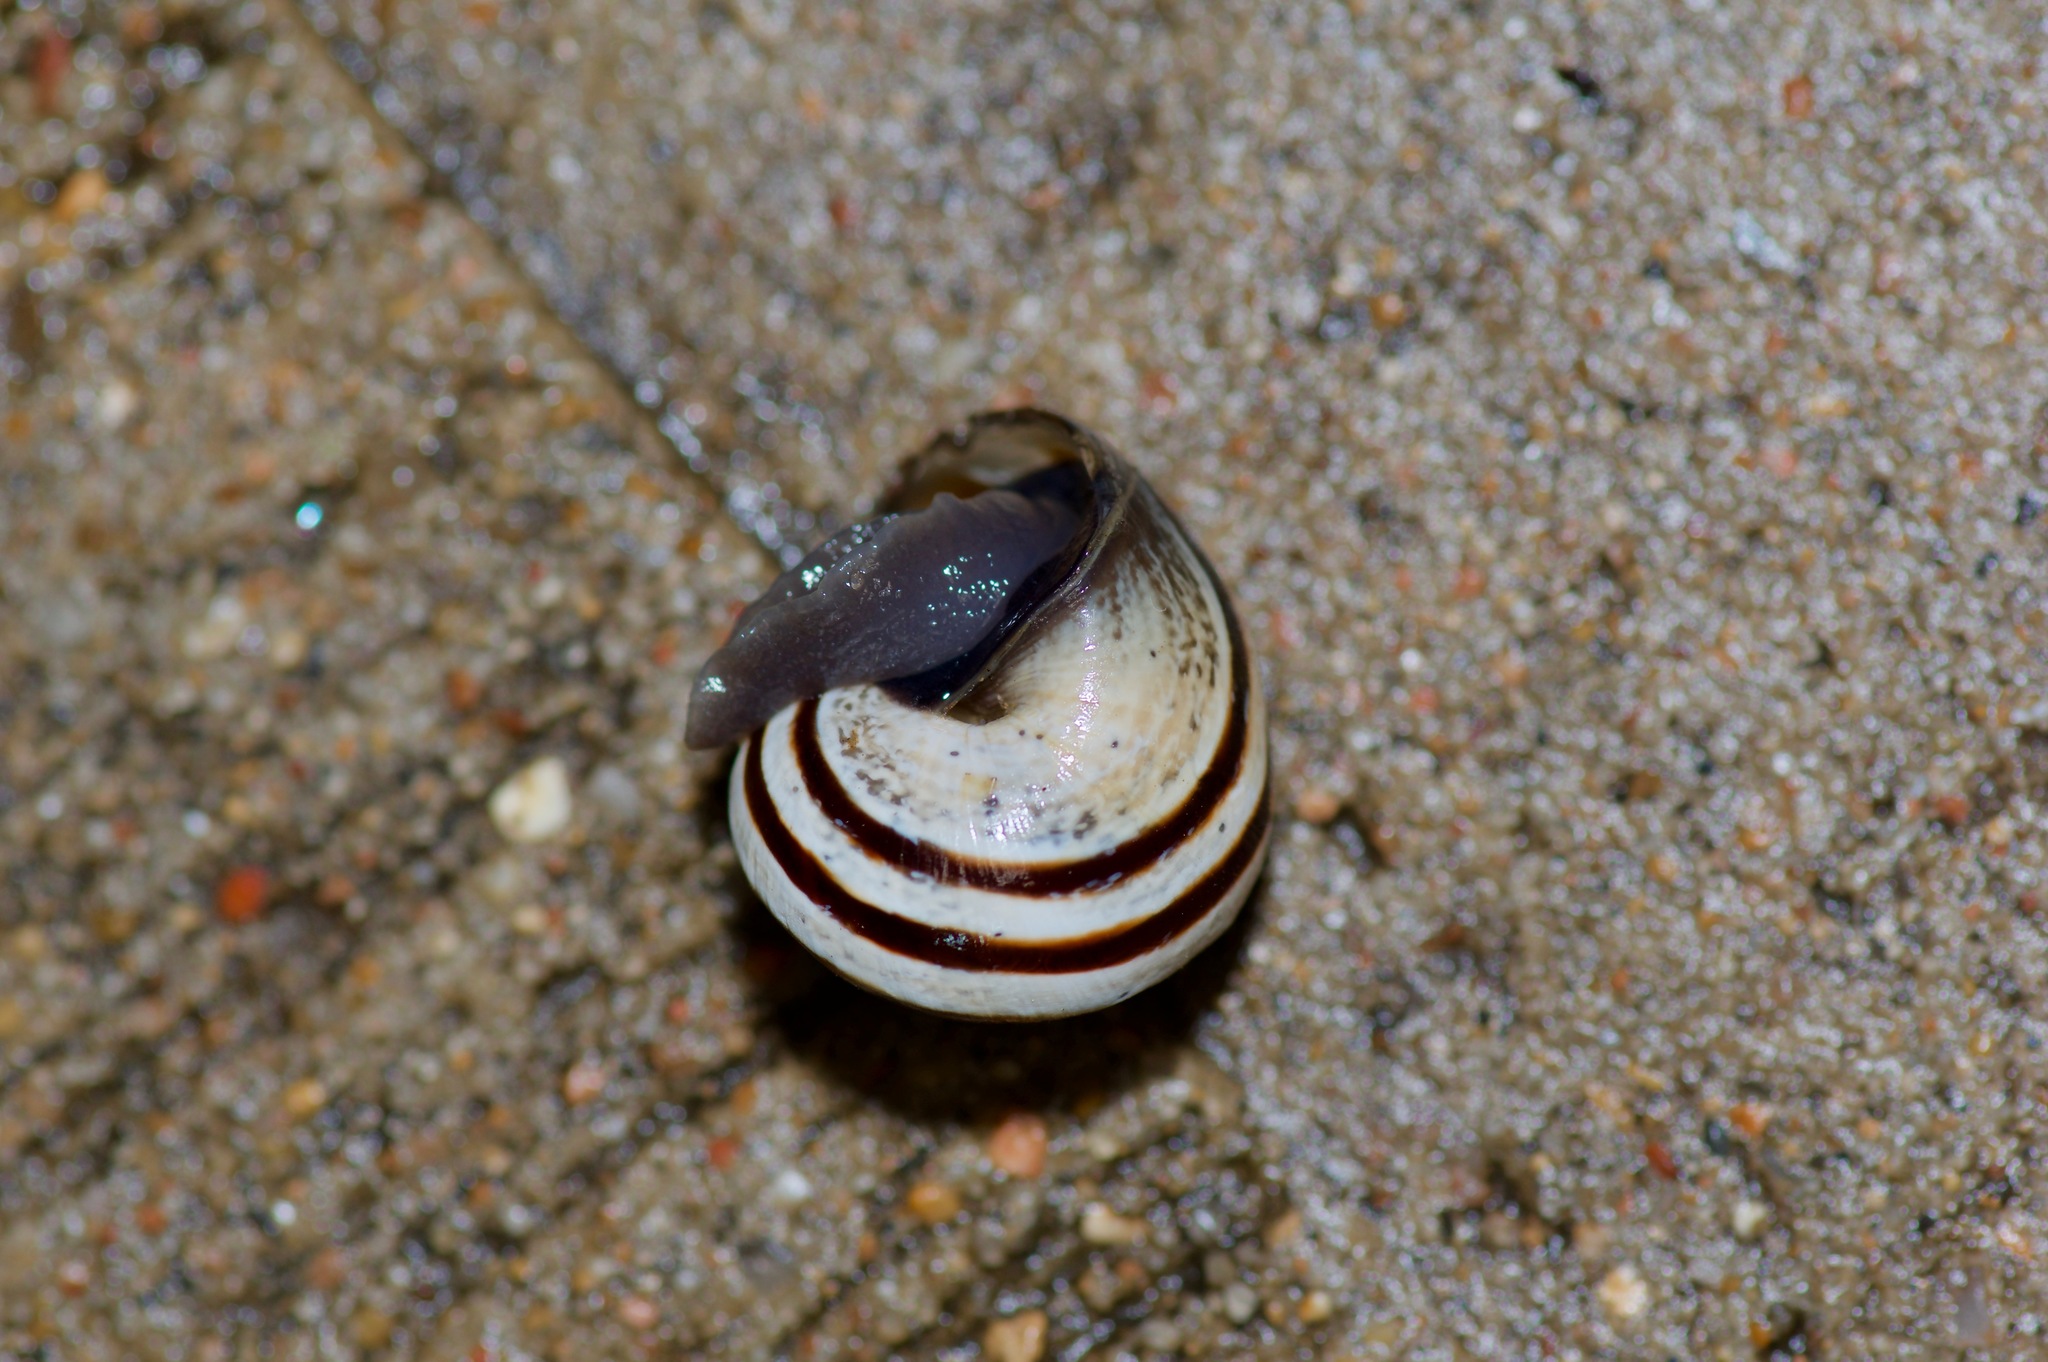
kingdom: Animalia
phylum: Mollusca
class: Gastropoda
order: Stylommatophora
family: Helicidae
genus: Otala
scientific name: Otala lactea
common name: Milk snail
